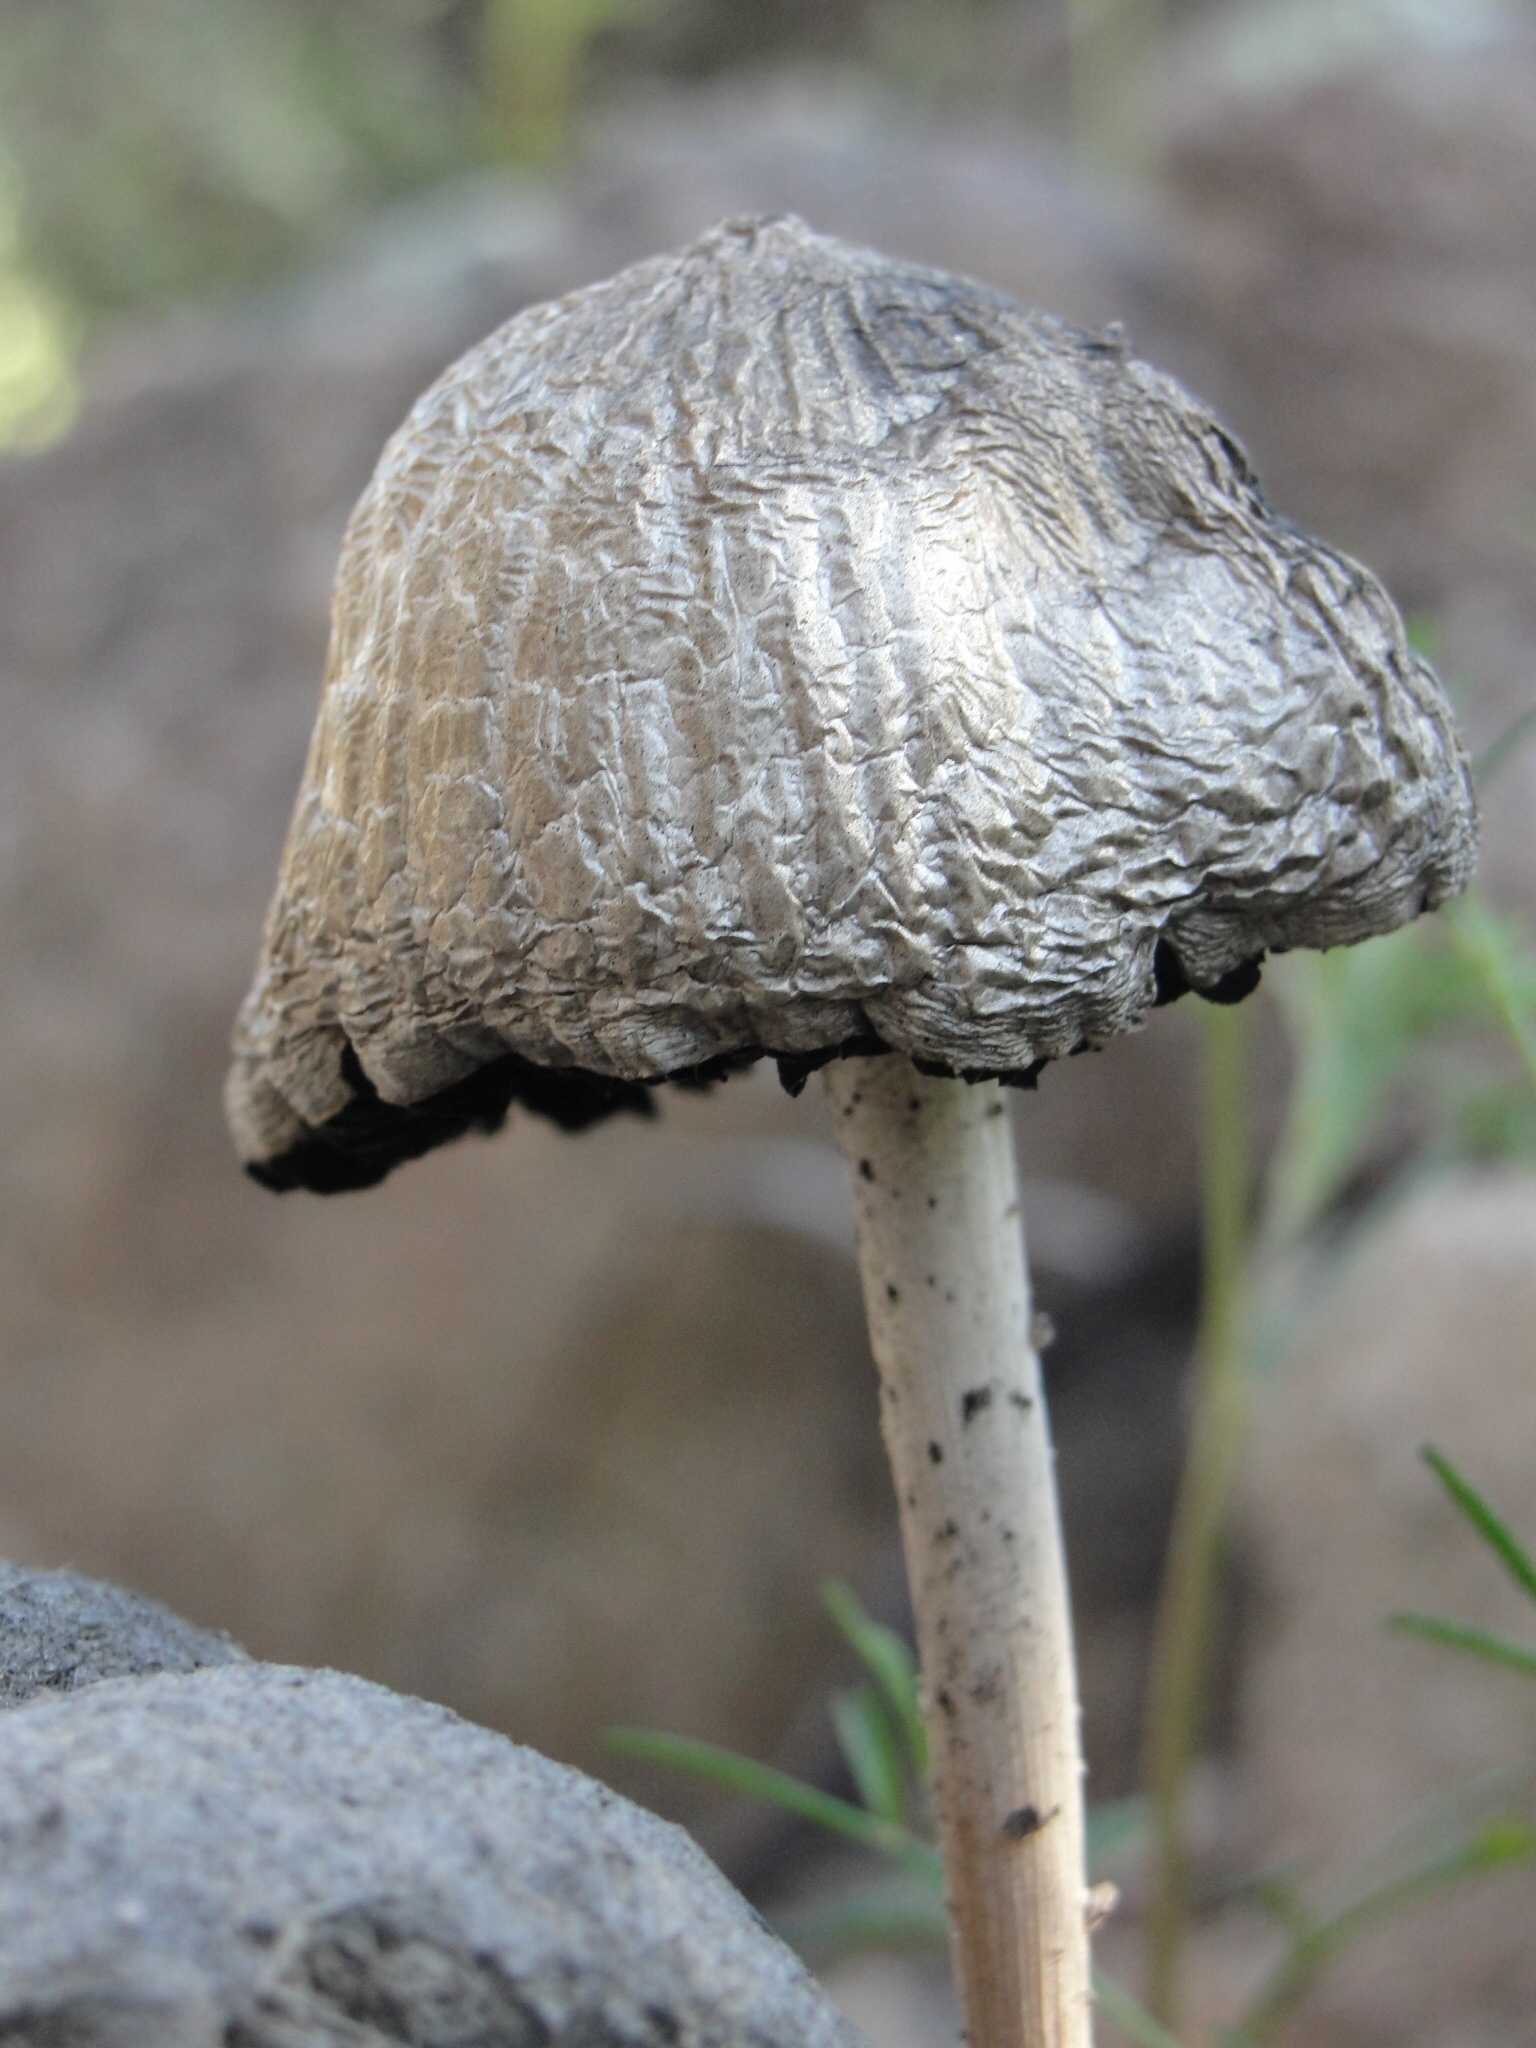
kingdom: Fungi
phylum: Basidiomycota
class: Agaricomycetes
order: Agaricales
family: Bolbitiaceae
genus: Panaeolus
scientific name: Panaeolus antillarum
